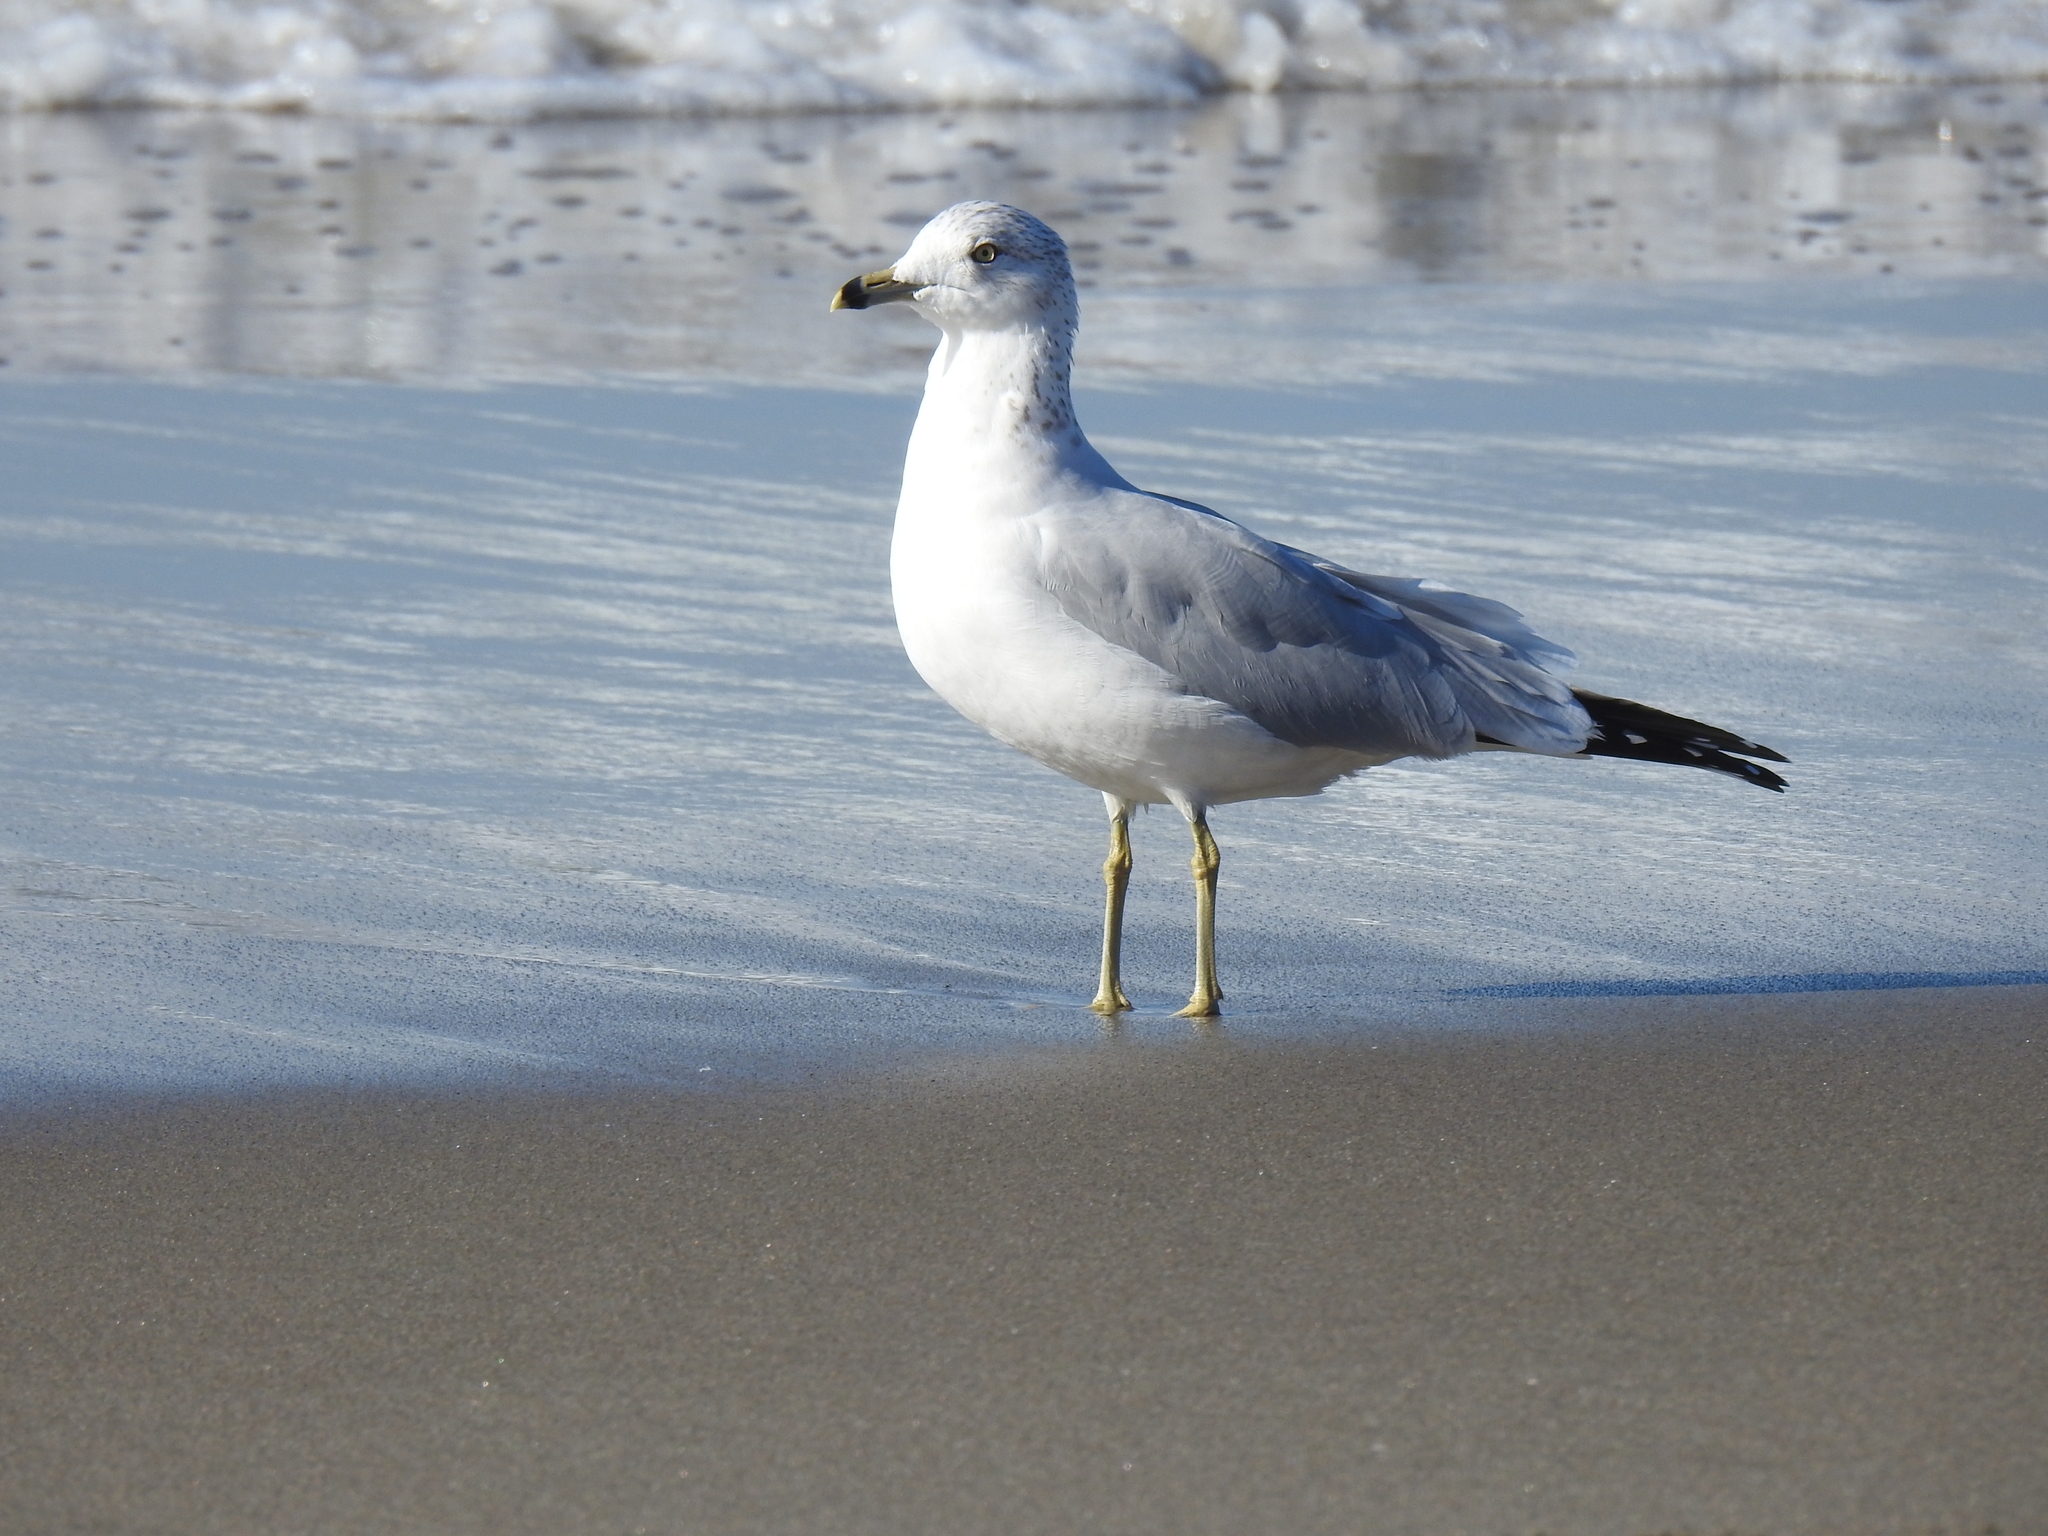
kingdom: Animalia
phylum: Chordata
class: Aves
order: Charadriiformes
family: Laridae
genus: Larus
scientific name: Larus delawarensis
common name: Ring-billed gull
